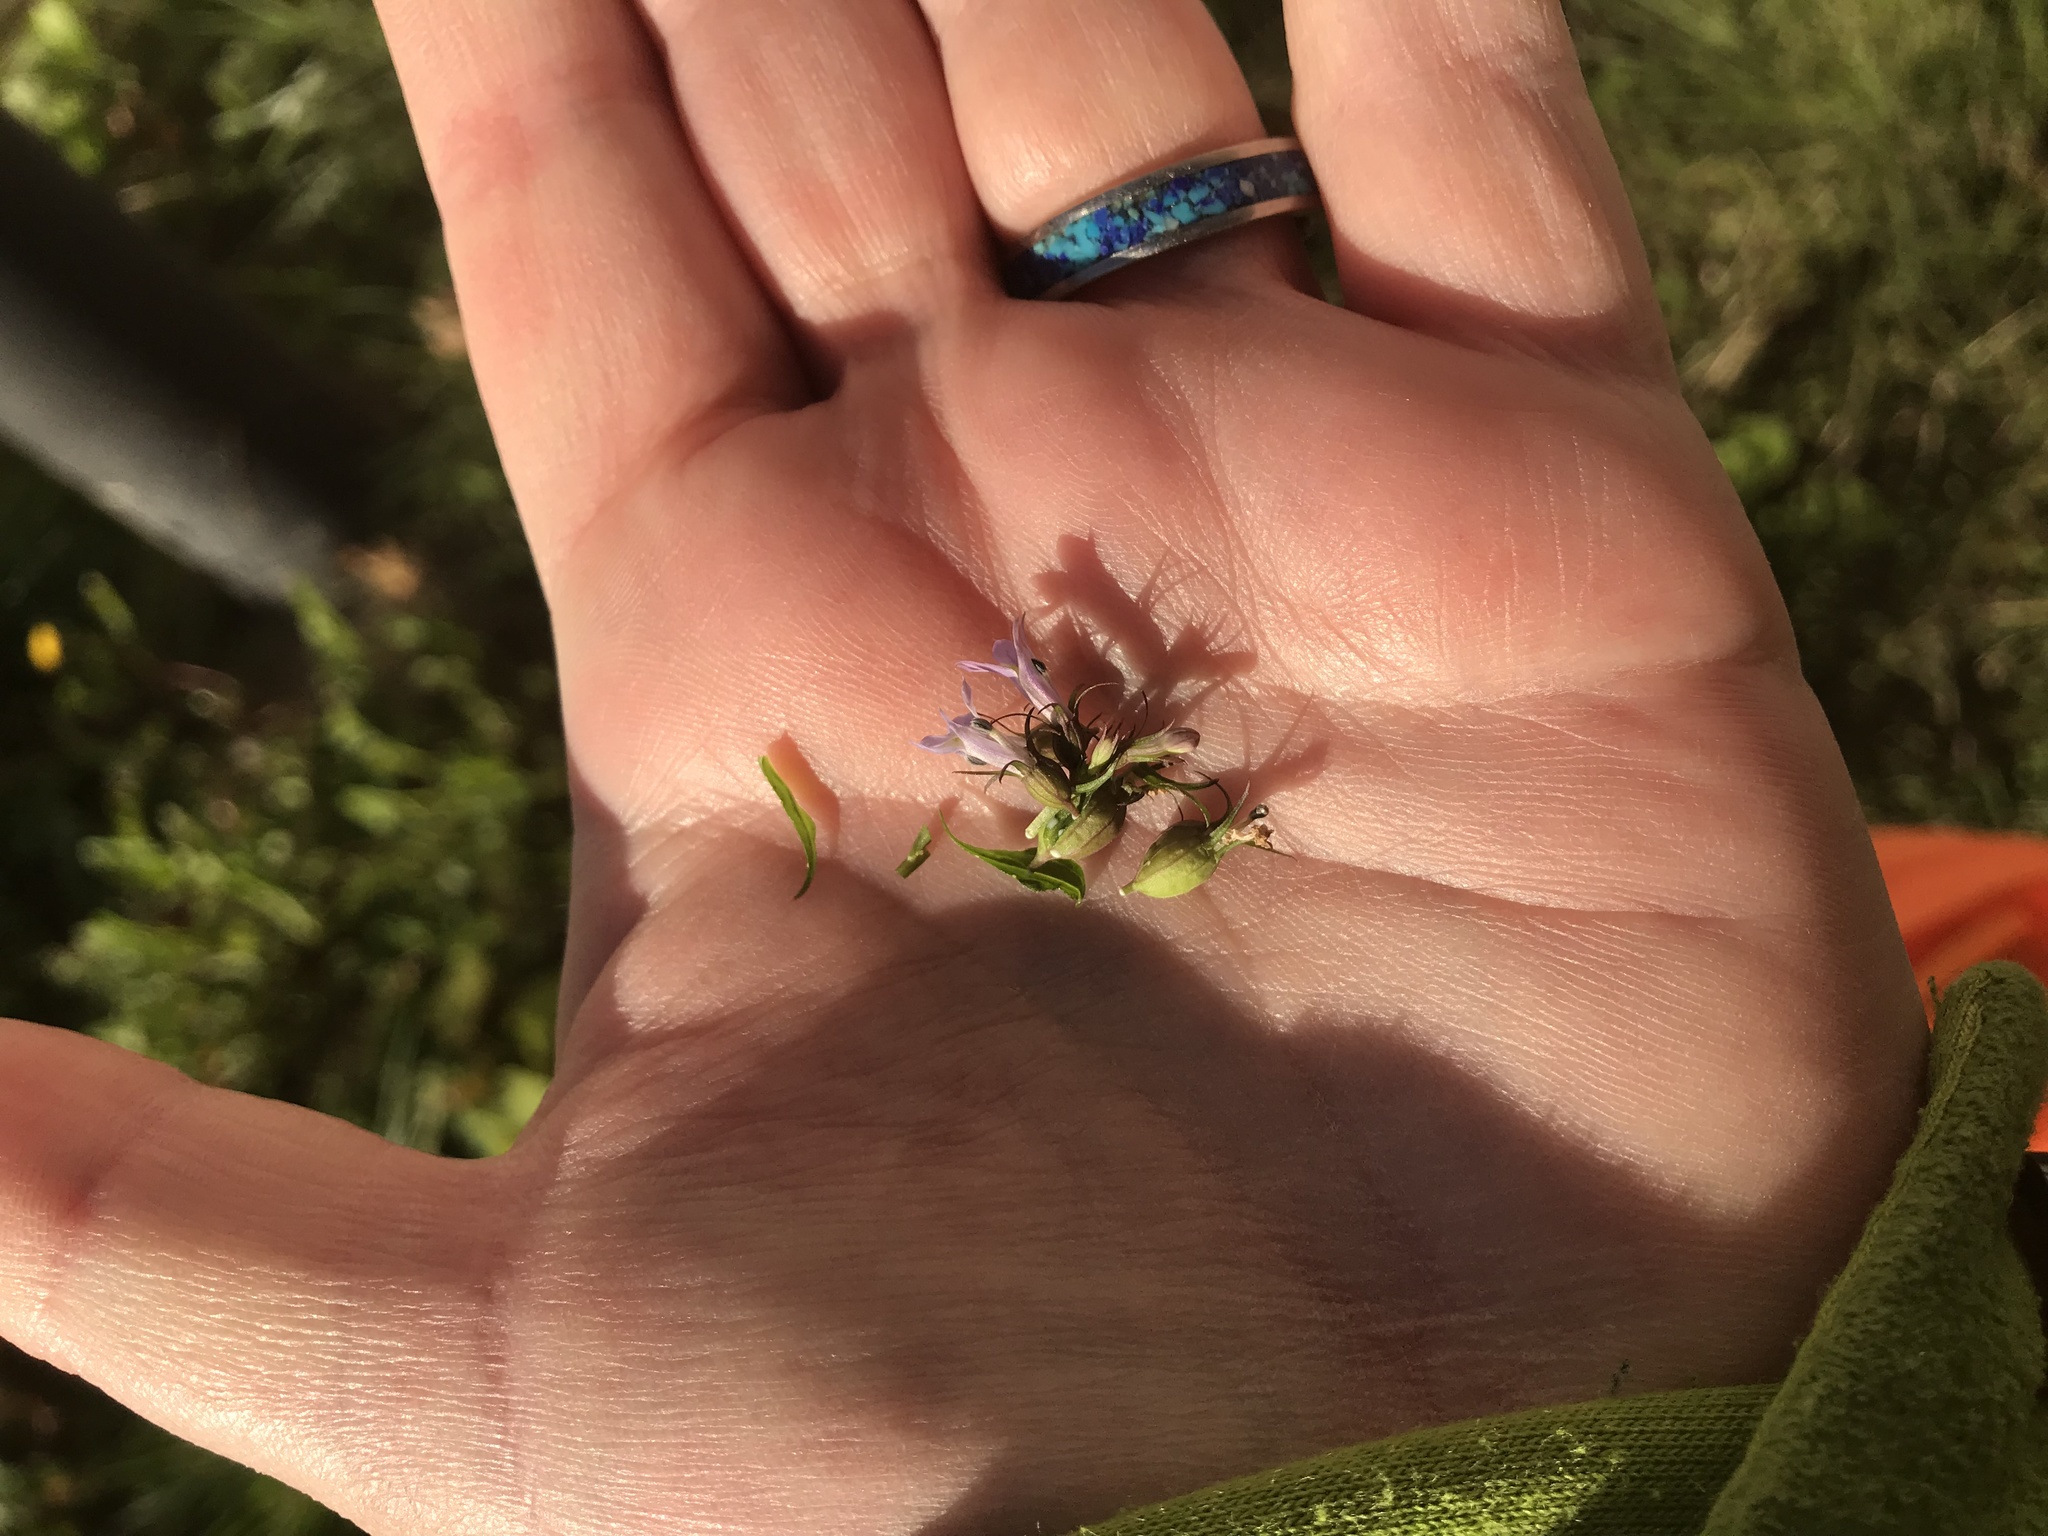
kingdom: Plantae
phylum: Tracheophyta
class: Magnoliopsida
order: Asterales
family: Campanulaceae
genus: Lobelia
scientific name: Lobelia inflata
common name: Indian tobacco
